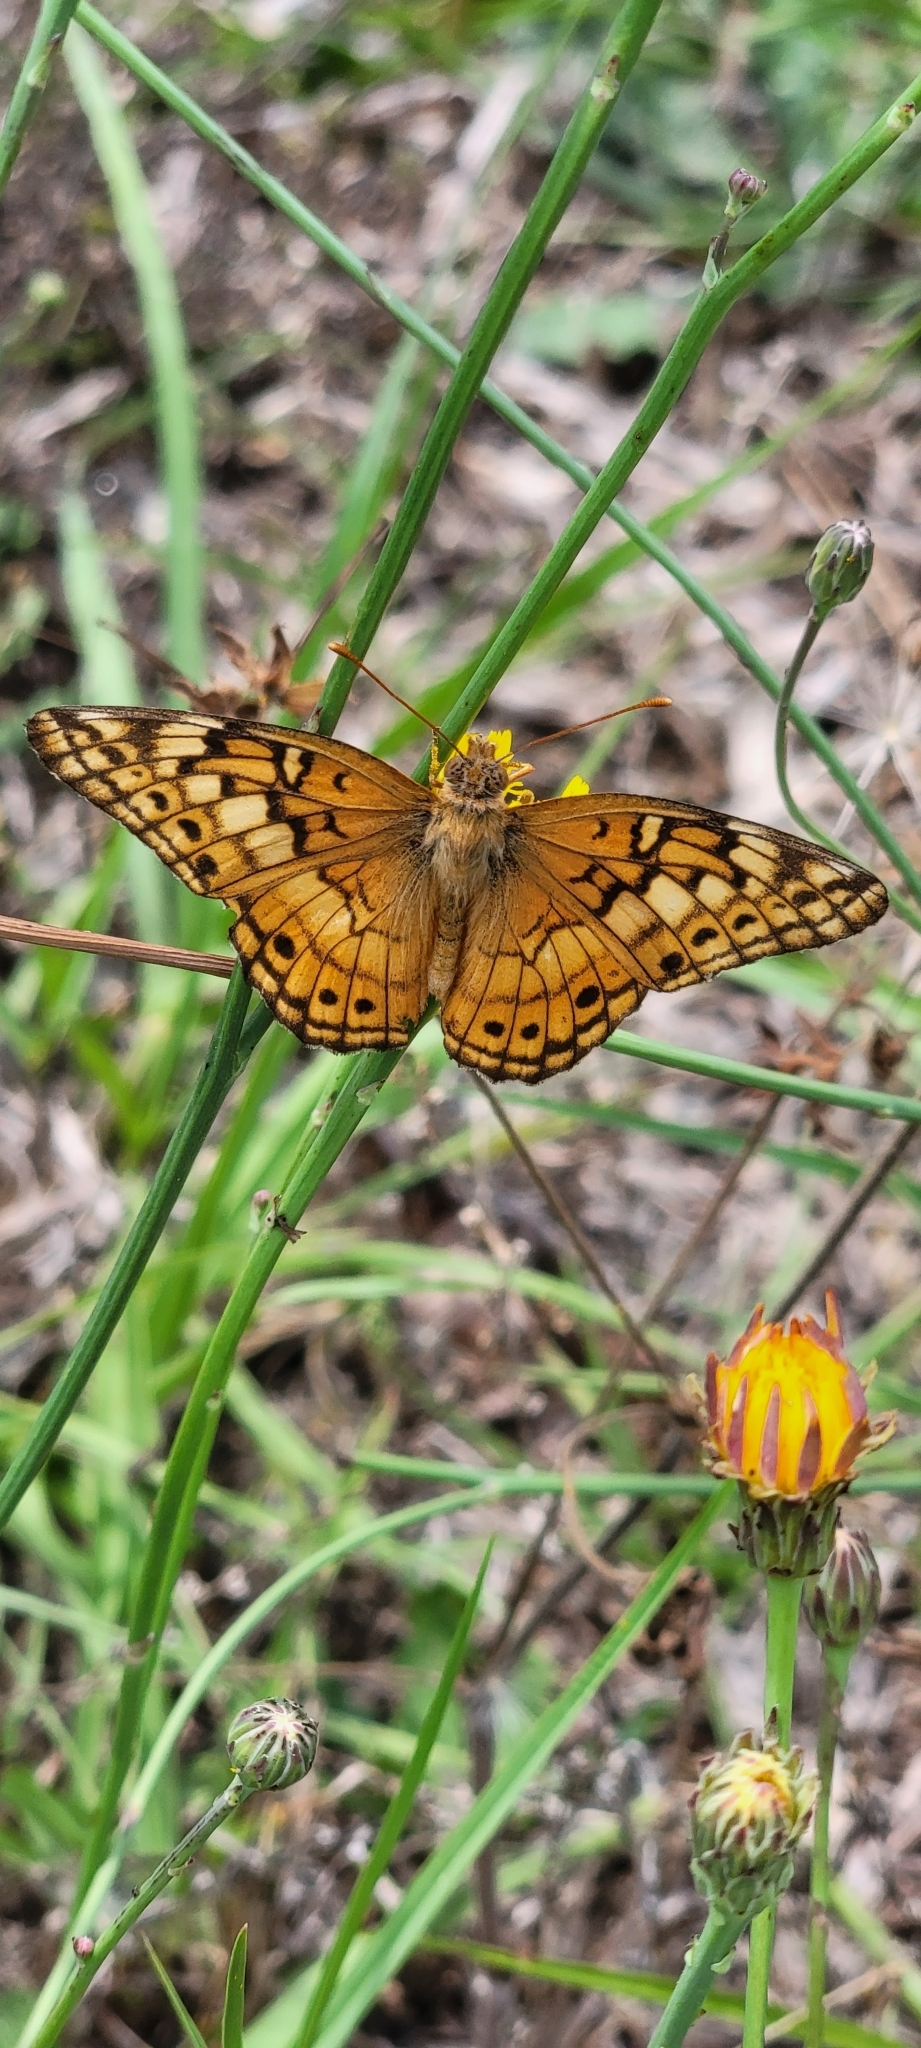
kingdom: Animalia
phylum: Arthropoda
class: Insecta
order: Lepidoptera
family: Nymphalidae
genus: Euptoieta
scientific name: Euptoieta claudia
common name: Variegated fritillary
